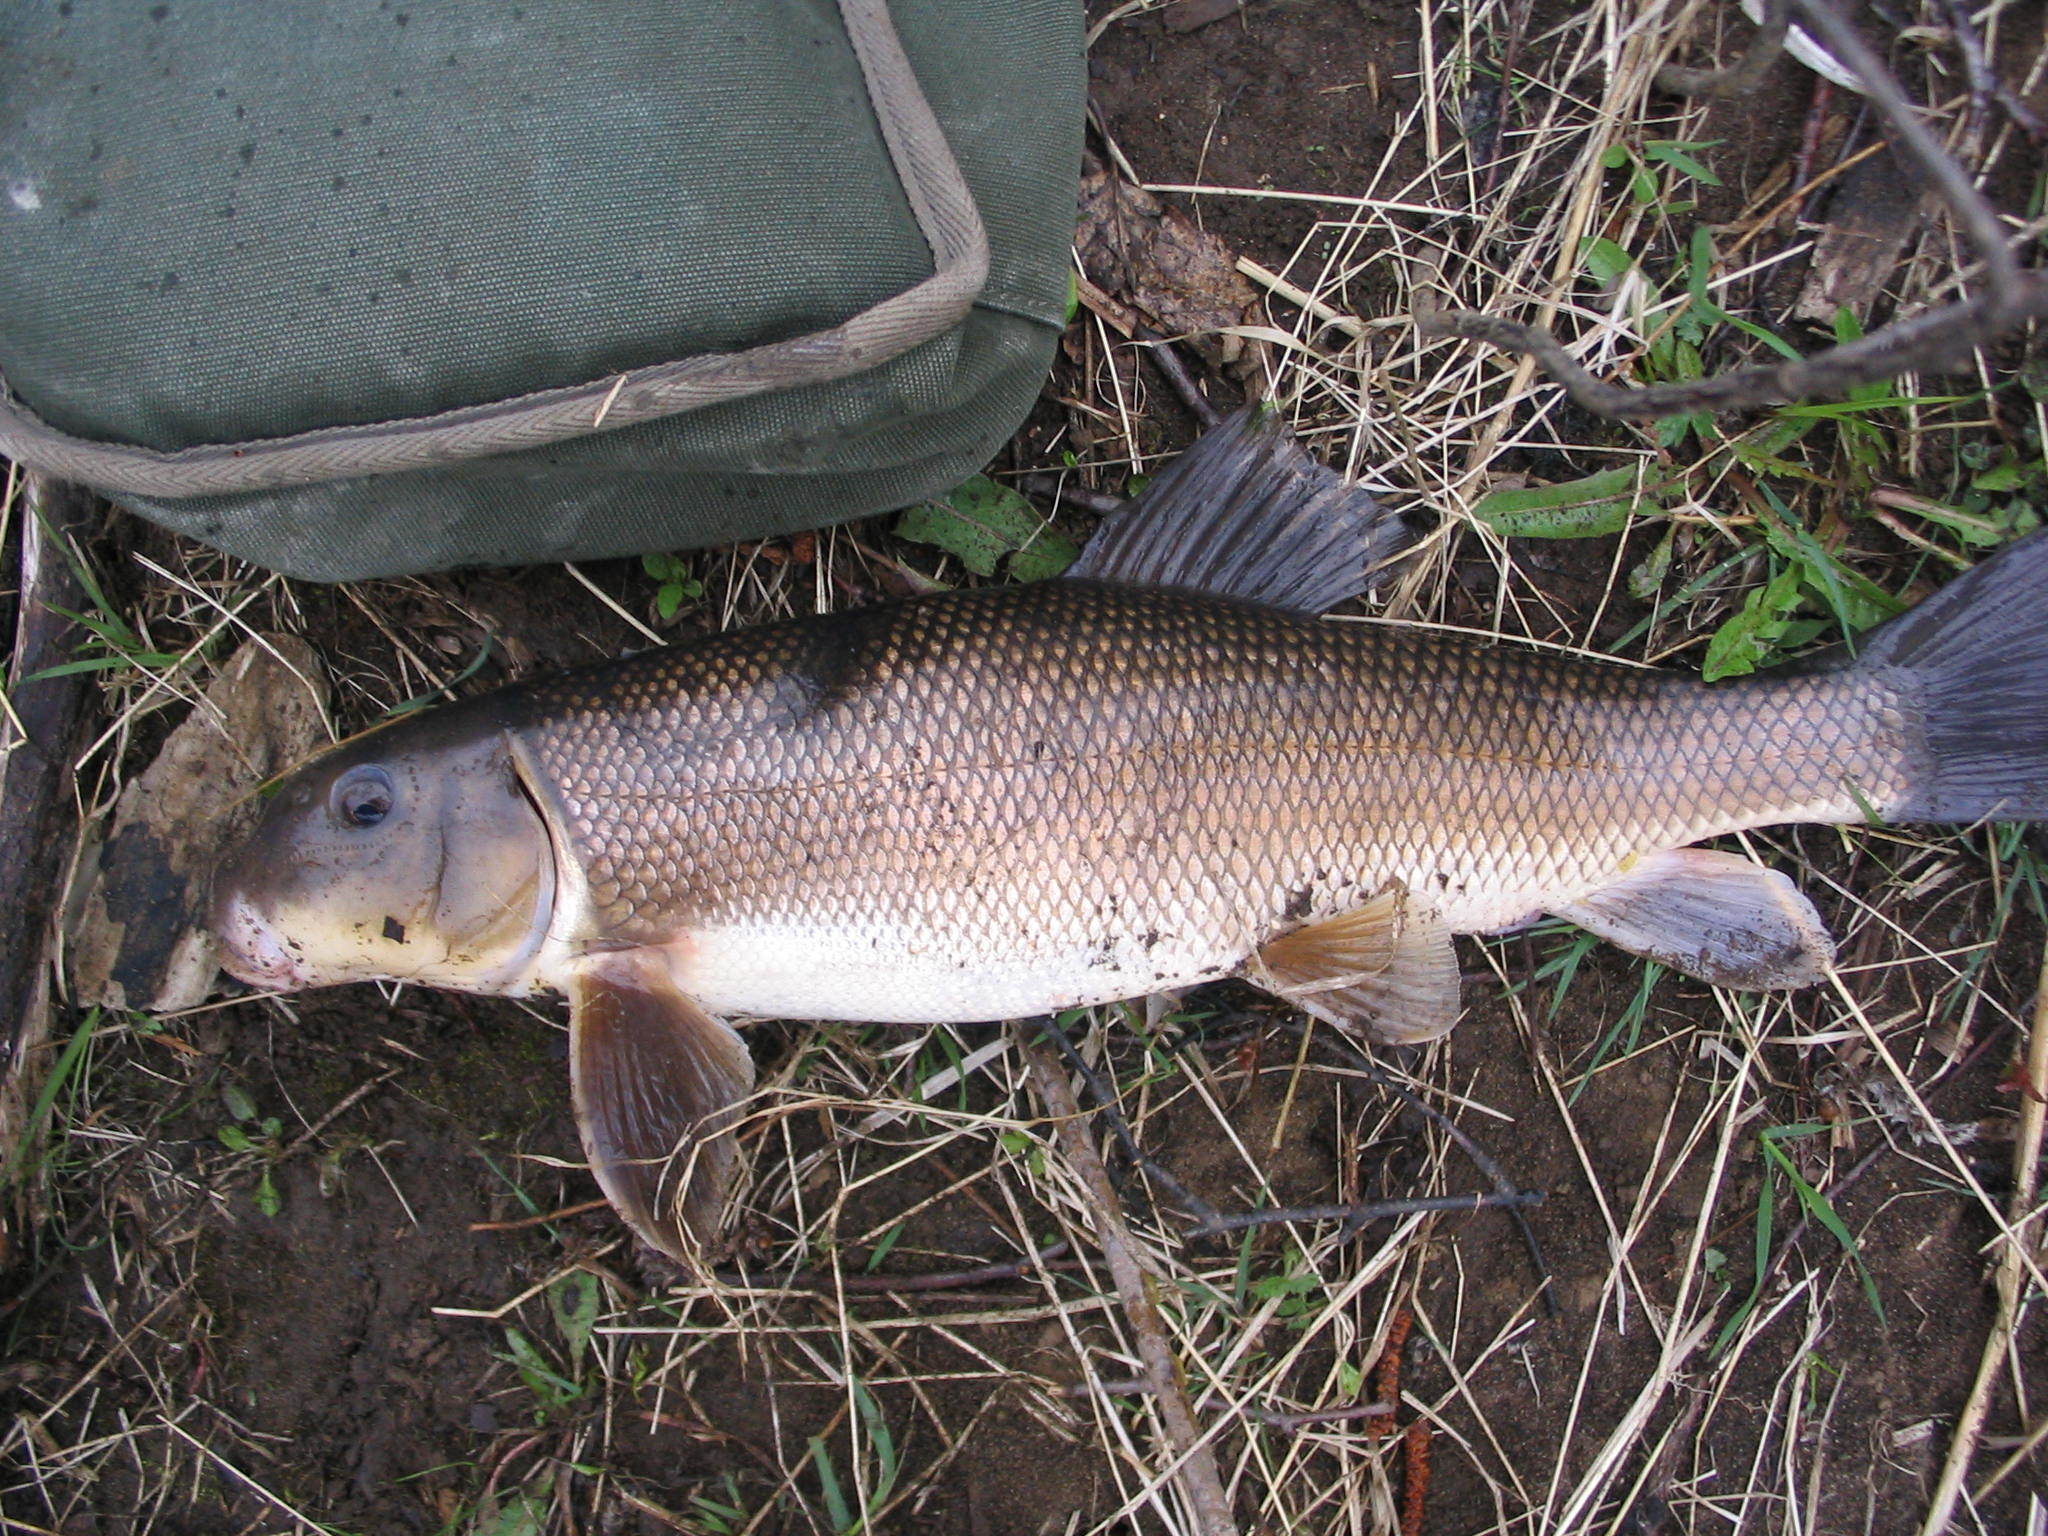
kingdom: Animalia
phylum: Chordata
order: Cypriniformes
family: Catostomidae
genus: Catostomus
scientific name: Catostomus commersonii
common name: White sucker
